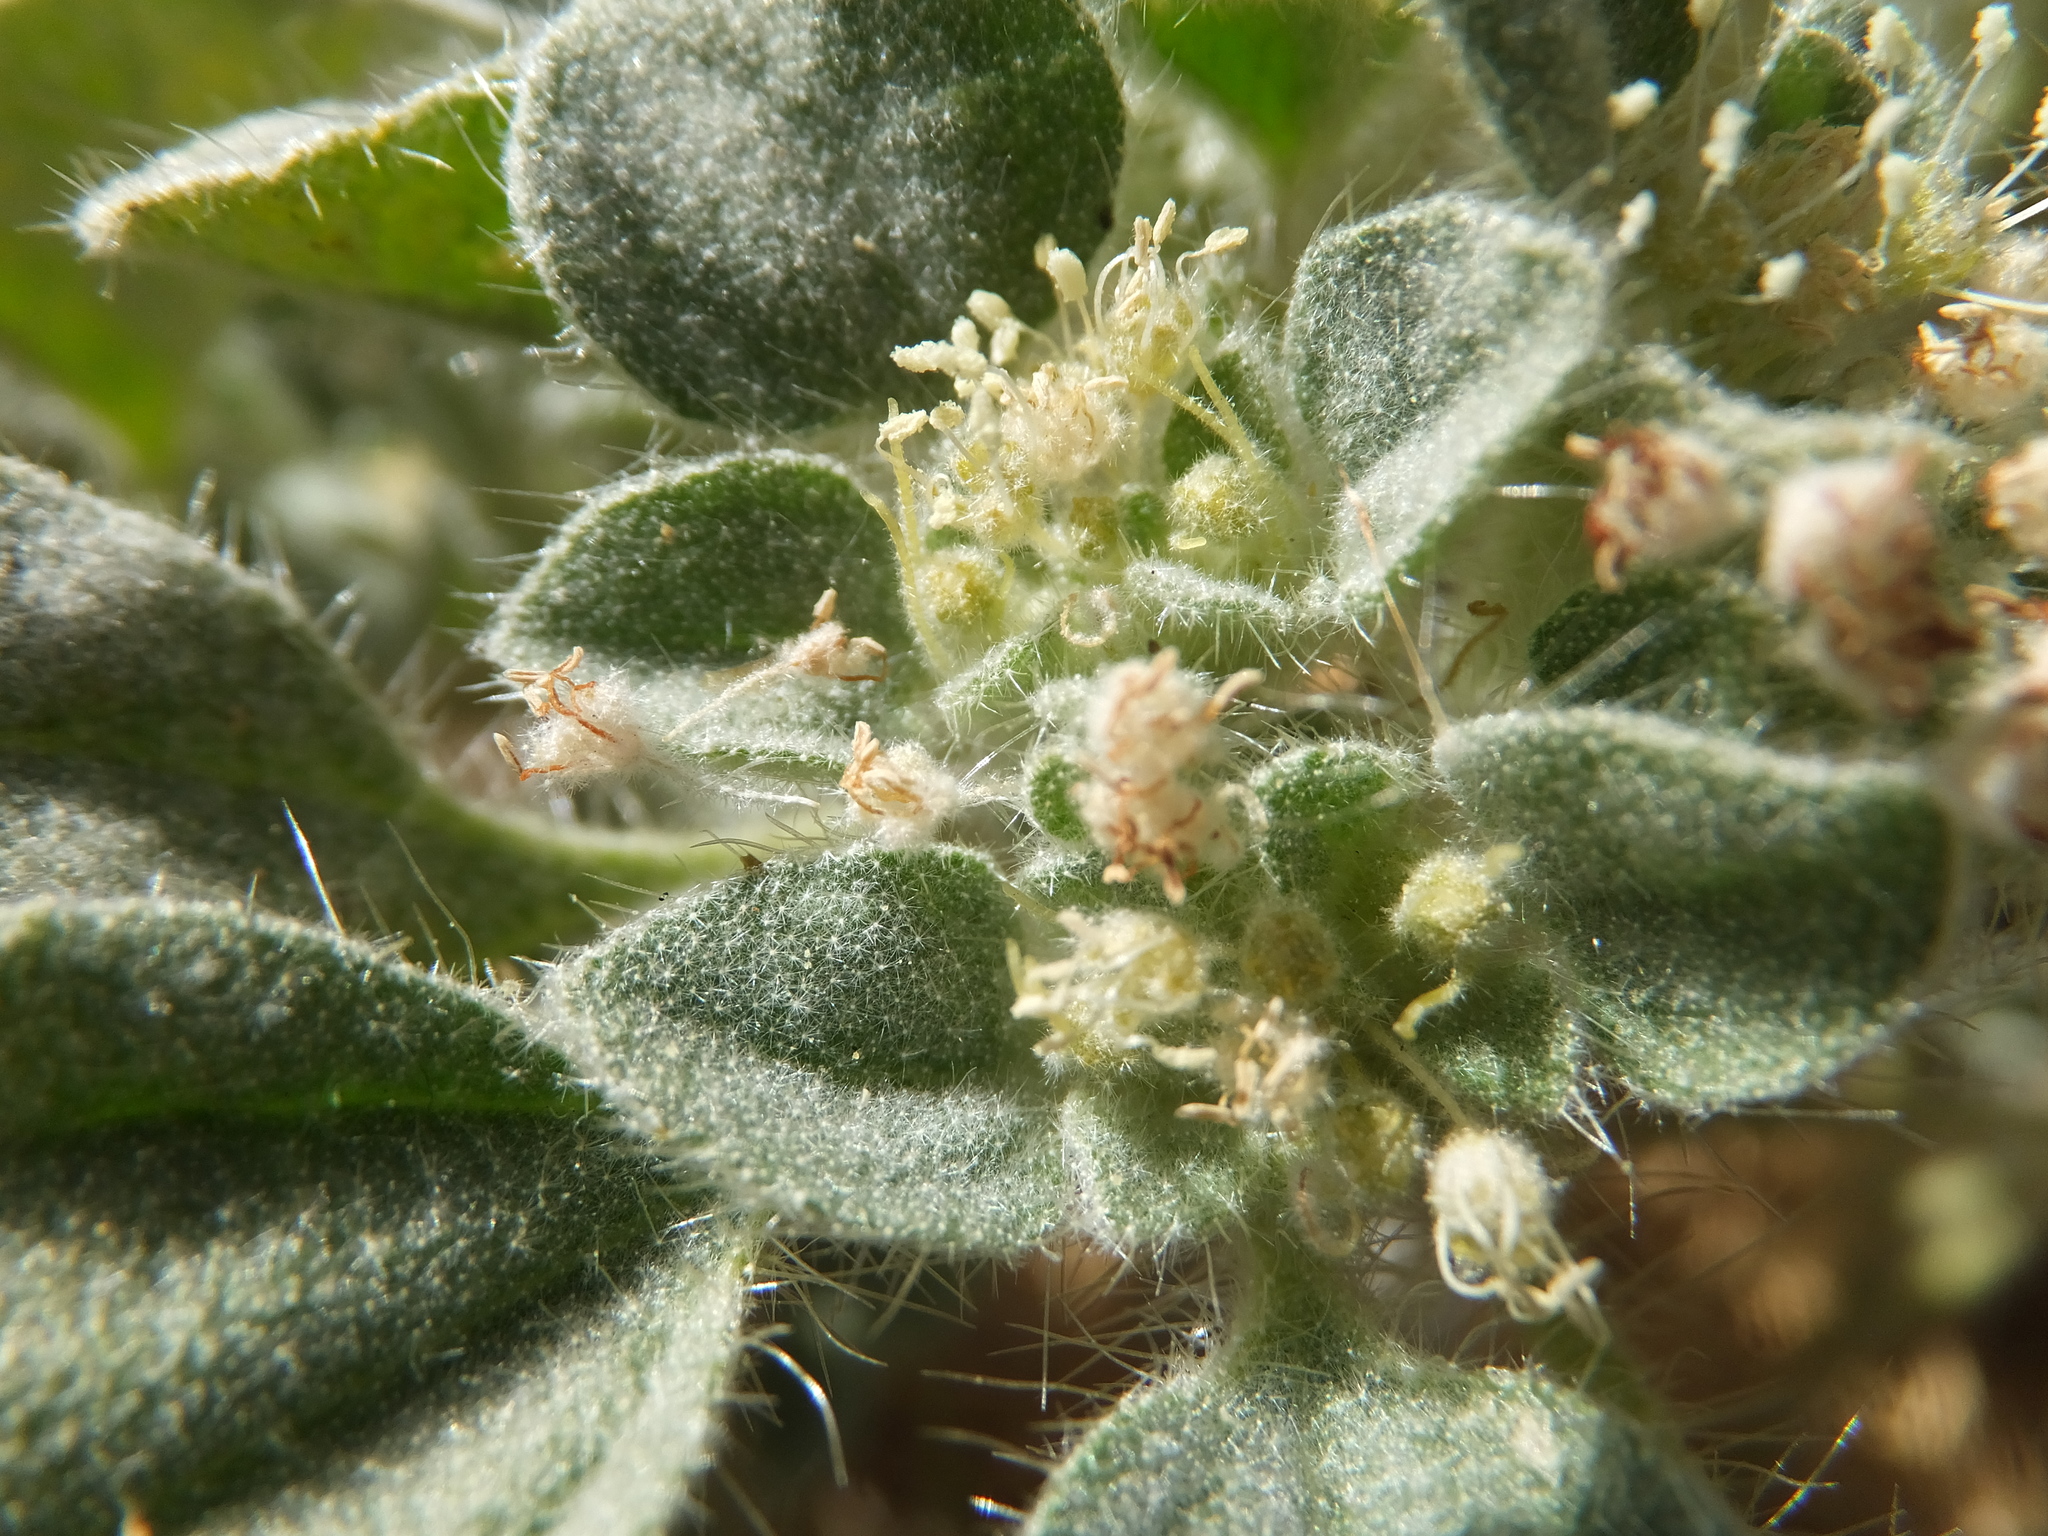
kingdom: Plantae
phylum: Tracheophyta
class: Magnoliopsida
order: Malpighiales
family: Euphorbiaceae
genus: Croton
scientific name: Croton setiger
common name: Dove weed
